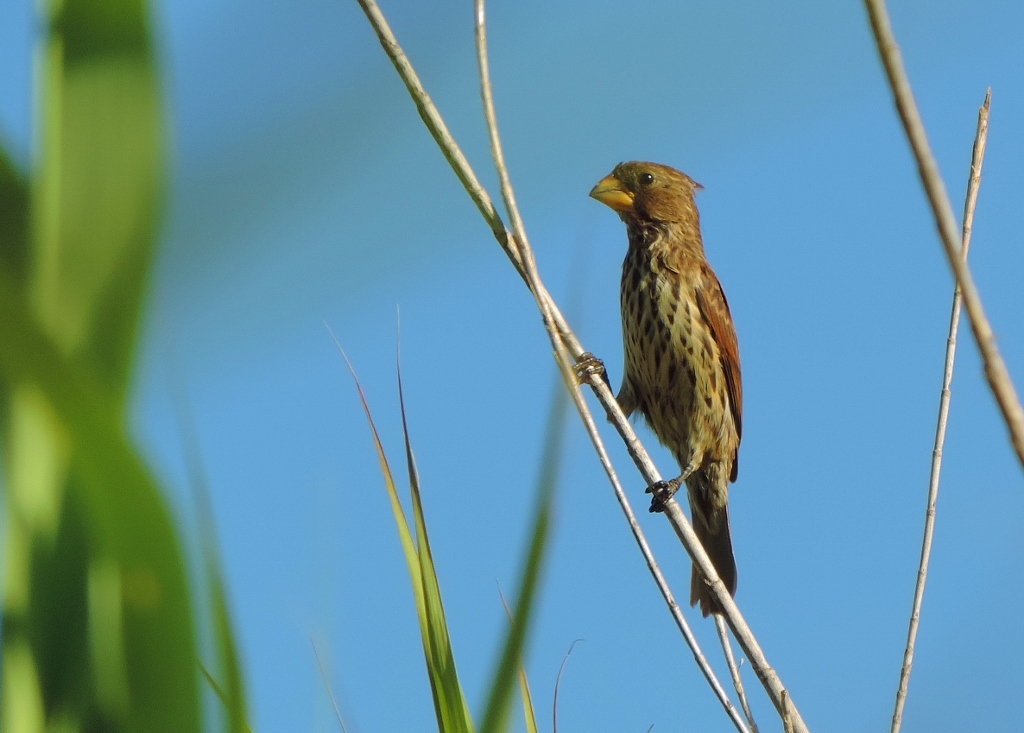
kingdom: Animalia
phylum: Chordata
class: Aves
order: Passeriformes
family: Ploceidae
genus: Amblyospiza
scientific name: Amblyospiza albifrons
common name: Thick-billed weaver
